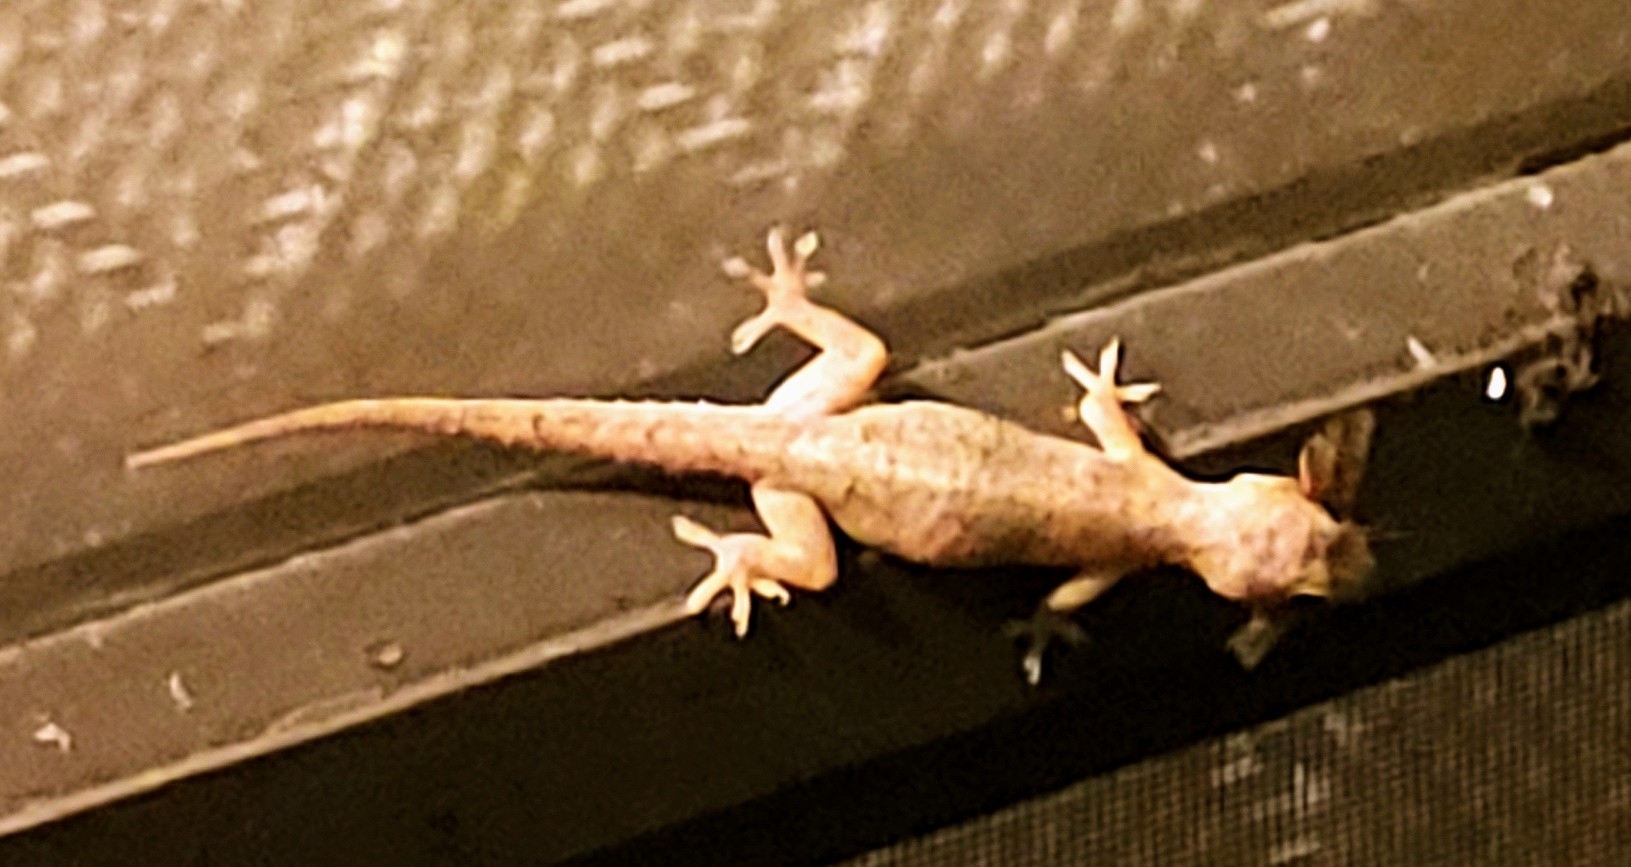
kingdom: Animalia
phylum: Chordata
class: Squamata
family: Gekkonidae
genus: Hemidactylus
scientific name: Hemidactylus mabouia
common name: House gecko
